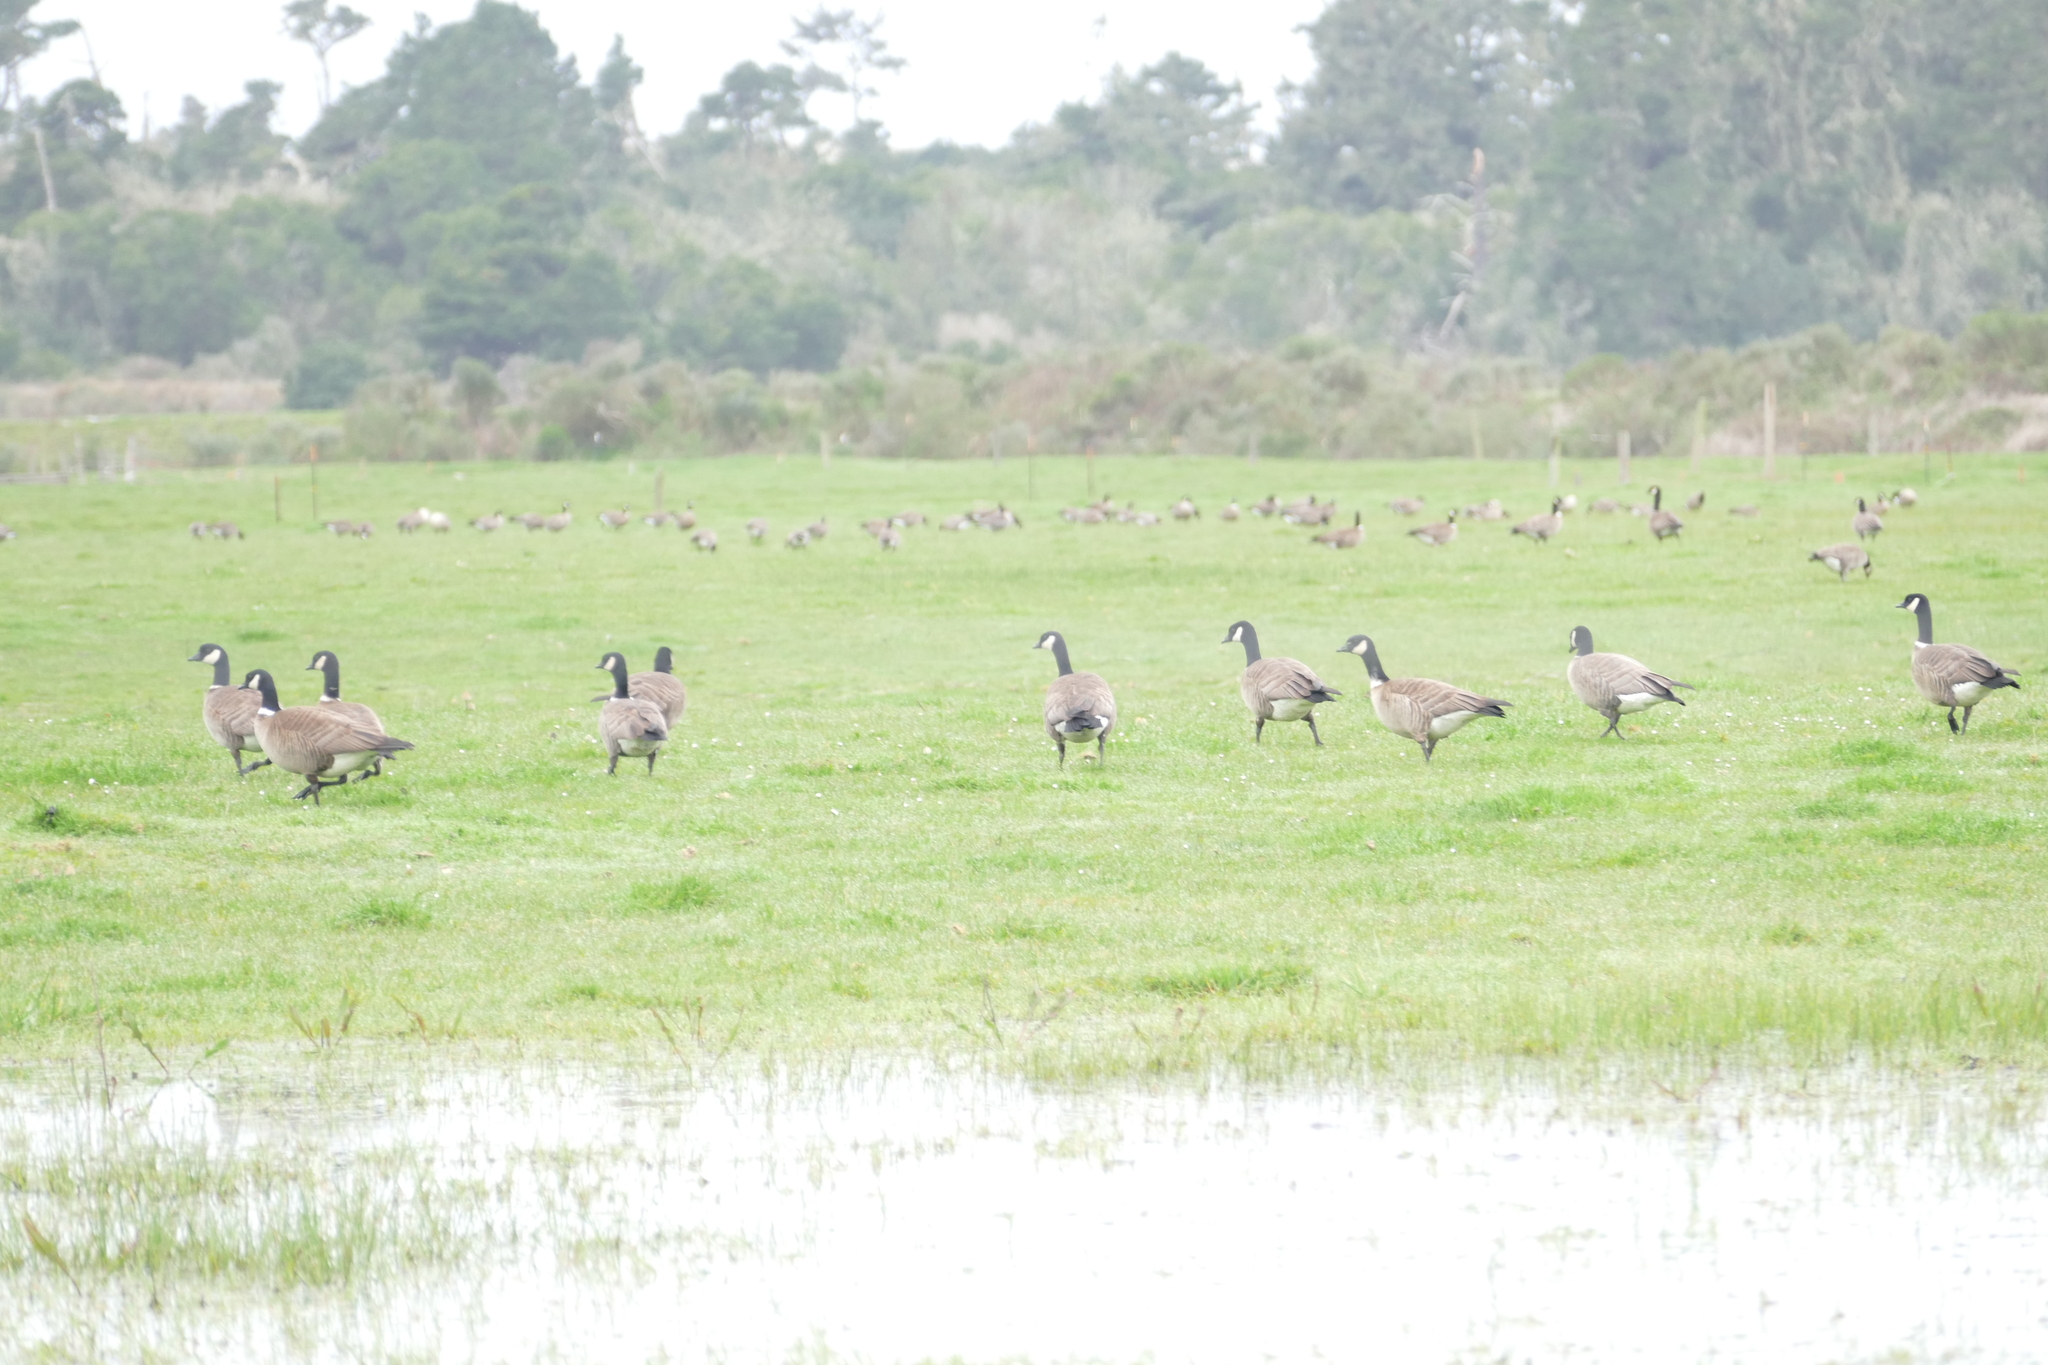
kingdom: Animalia
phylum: Chordata
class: Aves
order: Anseriformes
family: Anatidae
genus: Branta
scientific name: Branta hutchinsii
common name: Cackling goose
